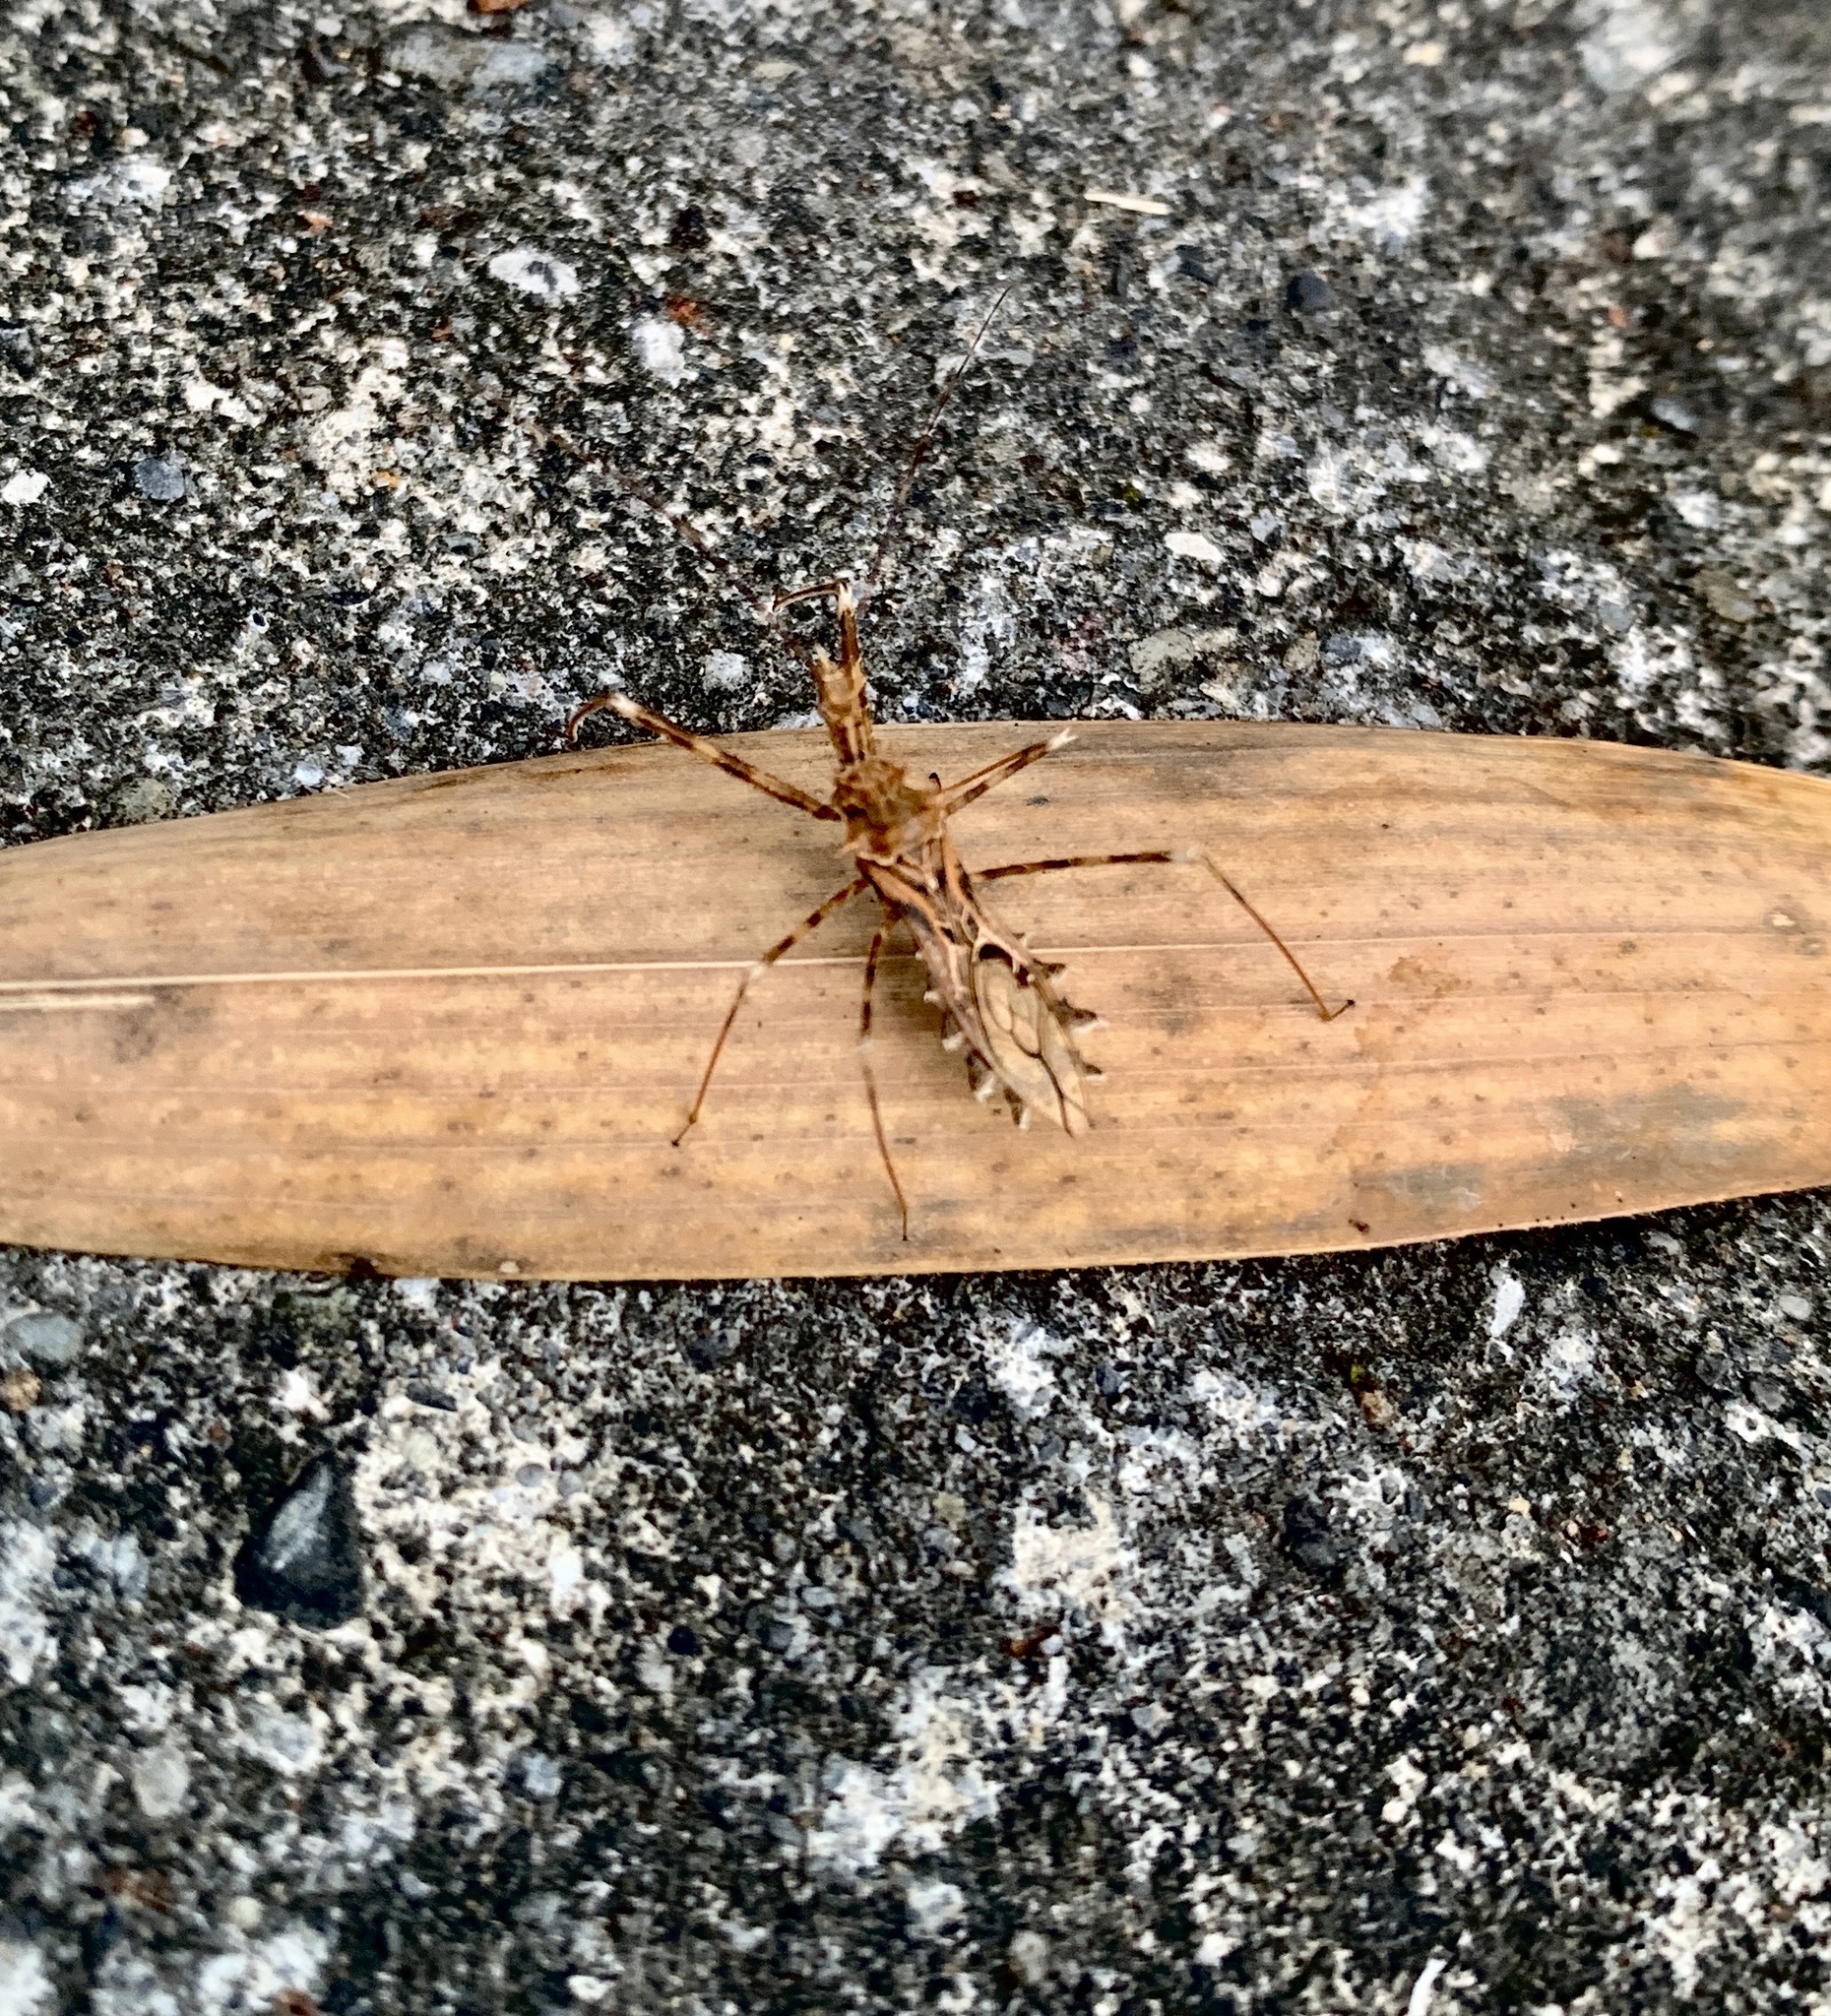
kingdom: Animalia
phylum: Arthropoda
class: Insecta
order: Hemiptera
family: Reduviidae
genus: Sclomina
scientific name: Sclomina erinacea
